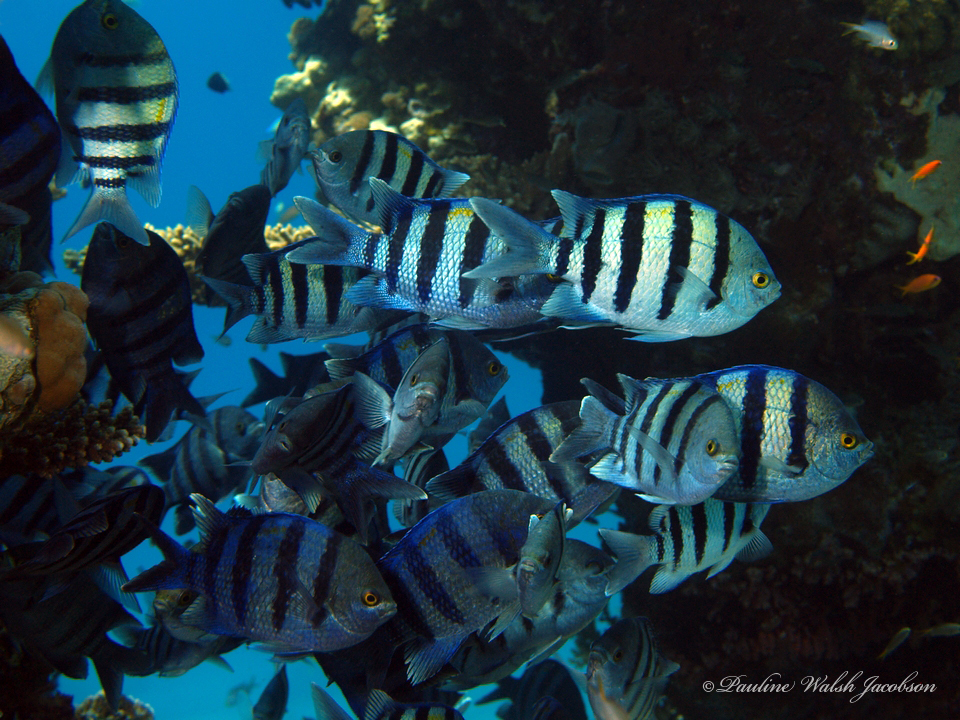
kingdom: Animalia
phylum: Chordata
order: Perciformes
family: Pomacentridae
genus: Abudefduf
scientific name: Abudefduf vaigiensis
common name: Indo-pacific sergeant
